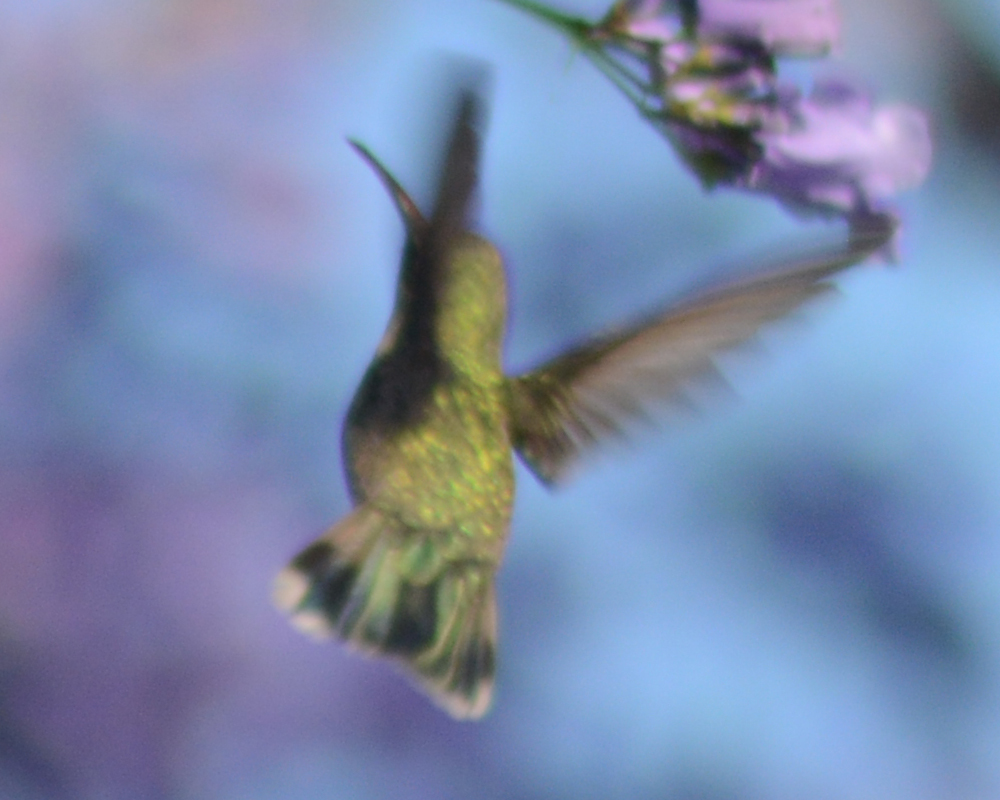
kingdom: Animalia
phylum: Chordata
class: Aves
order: Apodiformes
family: Trochilidae
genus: Cynanthus
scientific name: Cynanthus latirostris
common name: Broad-billed hummingbird
